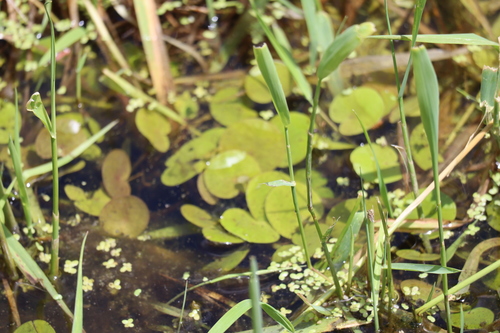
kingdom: Plantae
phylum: Tracheophyta
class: Liliopsida
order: Alismatales
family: Hydrocharitaceae
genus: Hydrocharis
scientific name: Hydrocharis morsus-ranae
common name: European frog-bit
